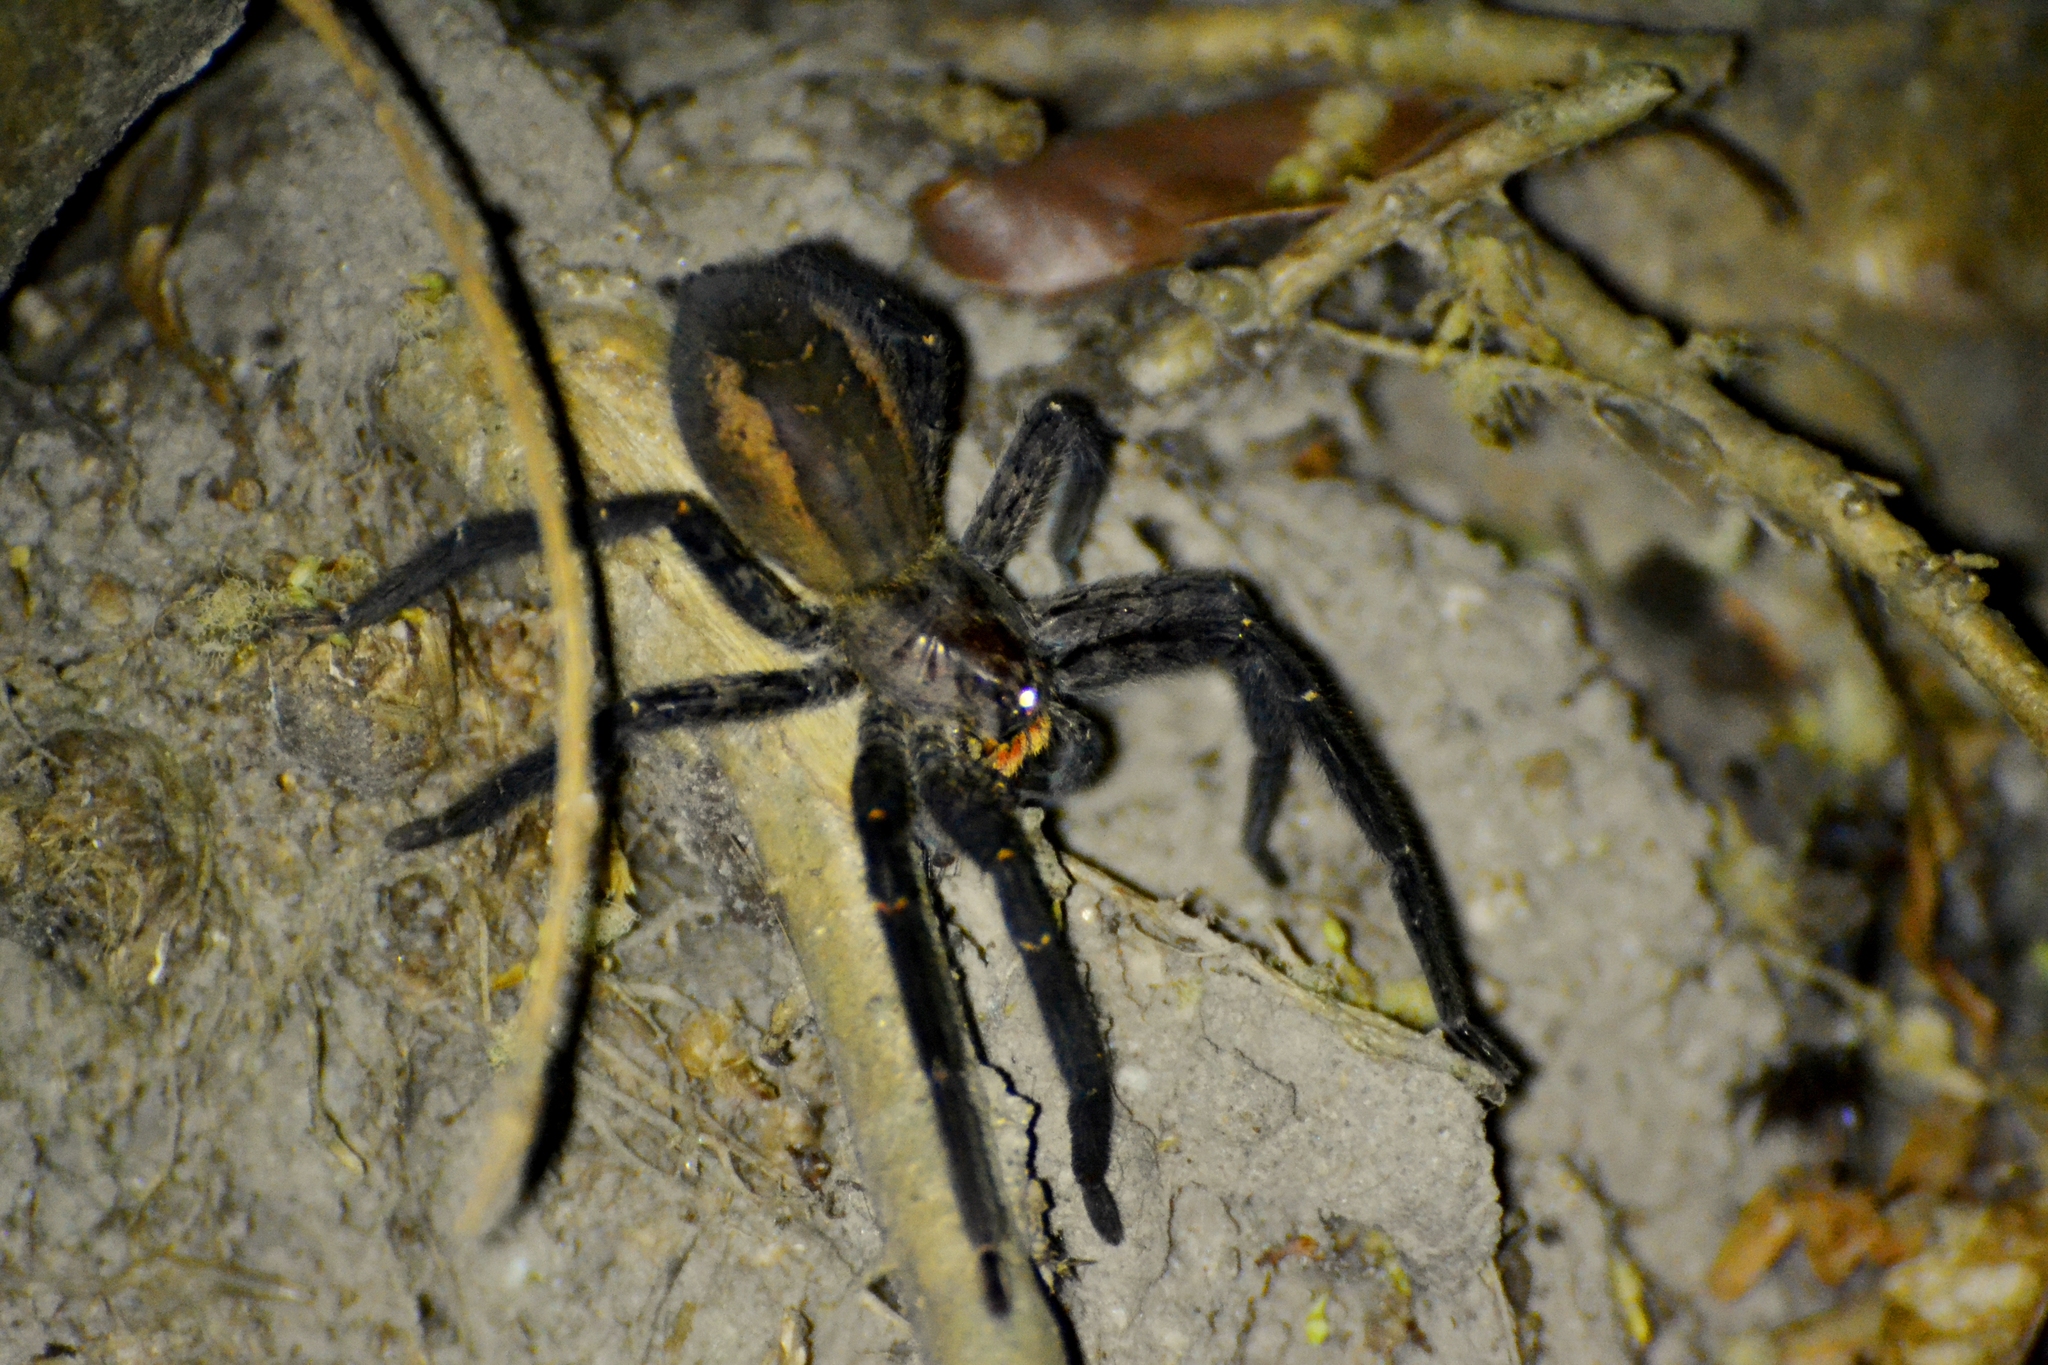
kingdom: Animalia
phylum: Arthropoda
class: Arachnida
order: Araneae
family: Trechaleidae
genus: Cupiennius
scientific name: Cupiennius chiapanensis
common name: Wandering spiders
